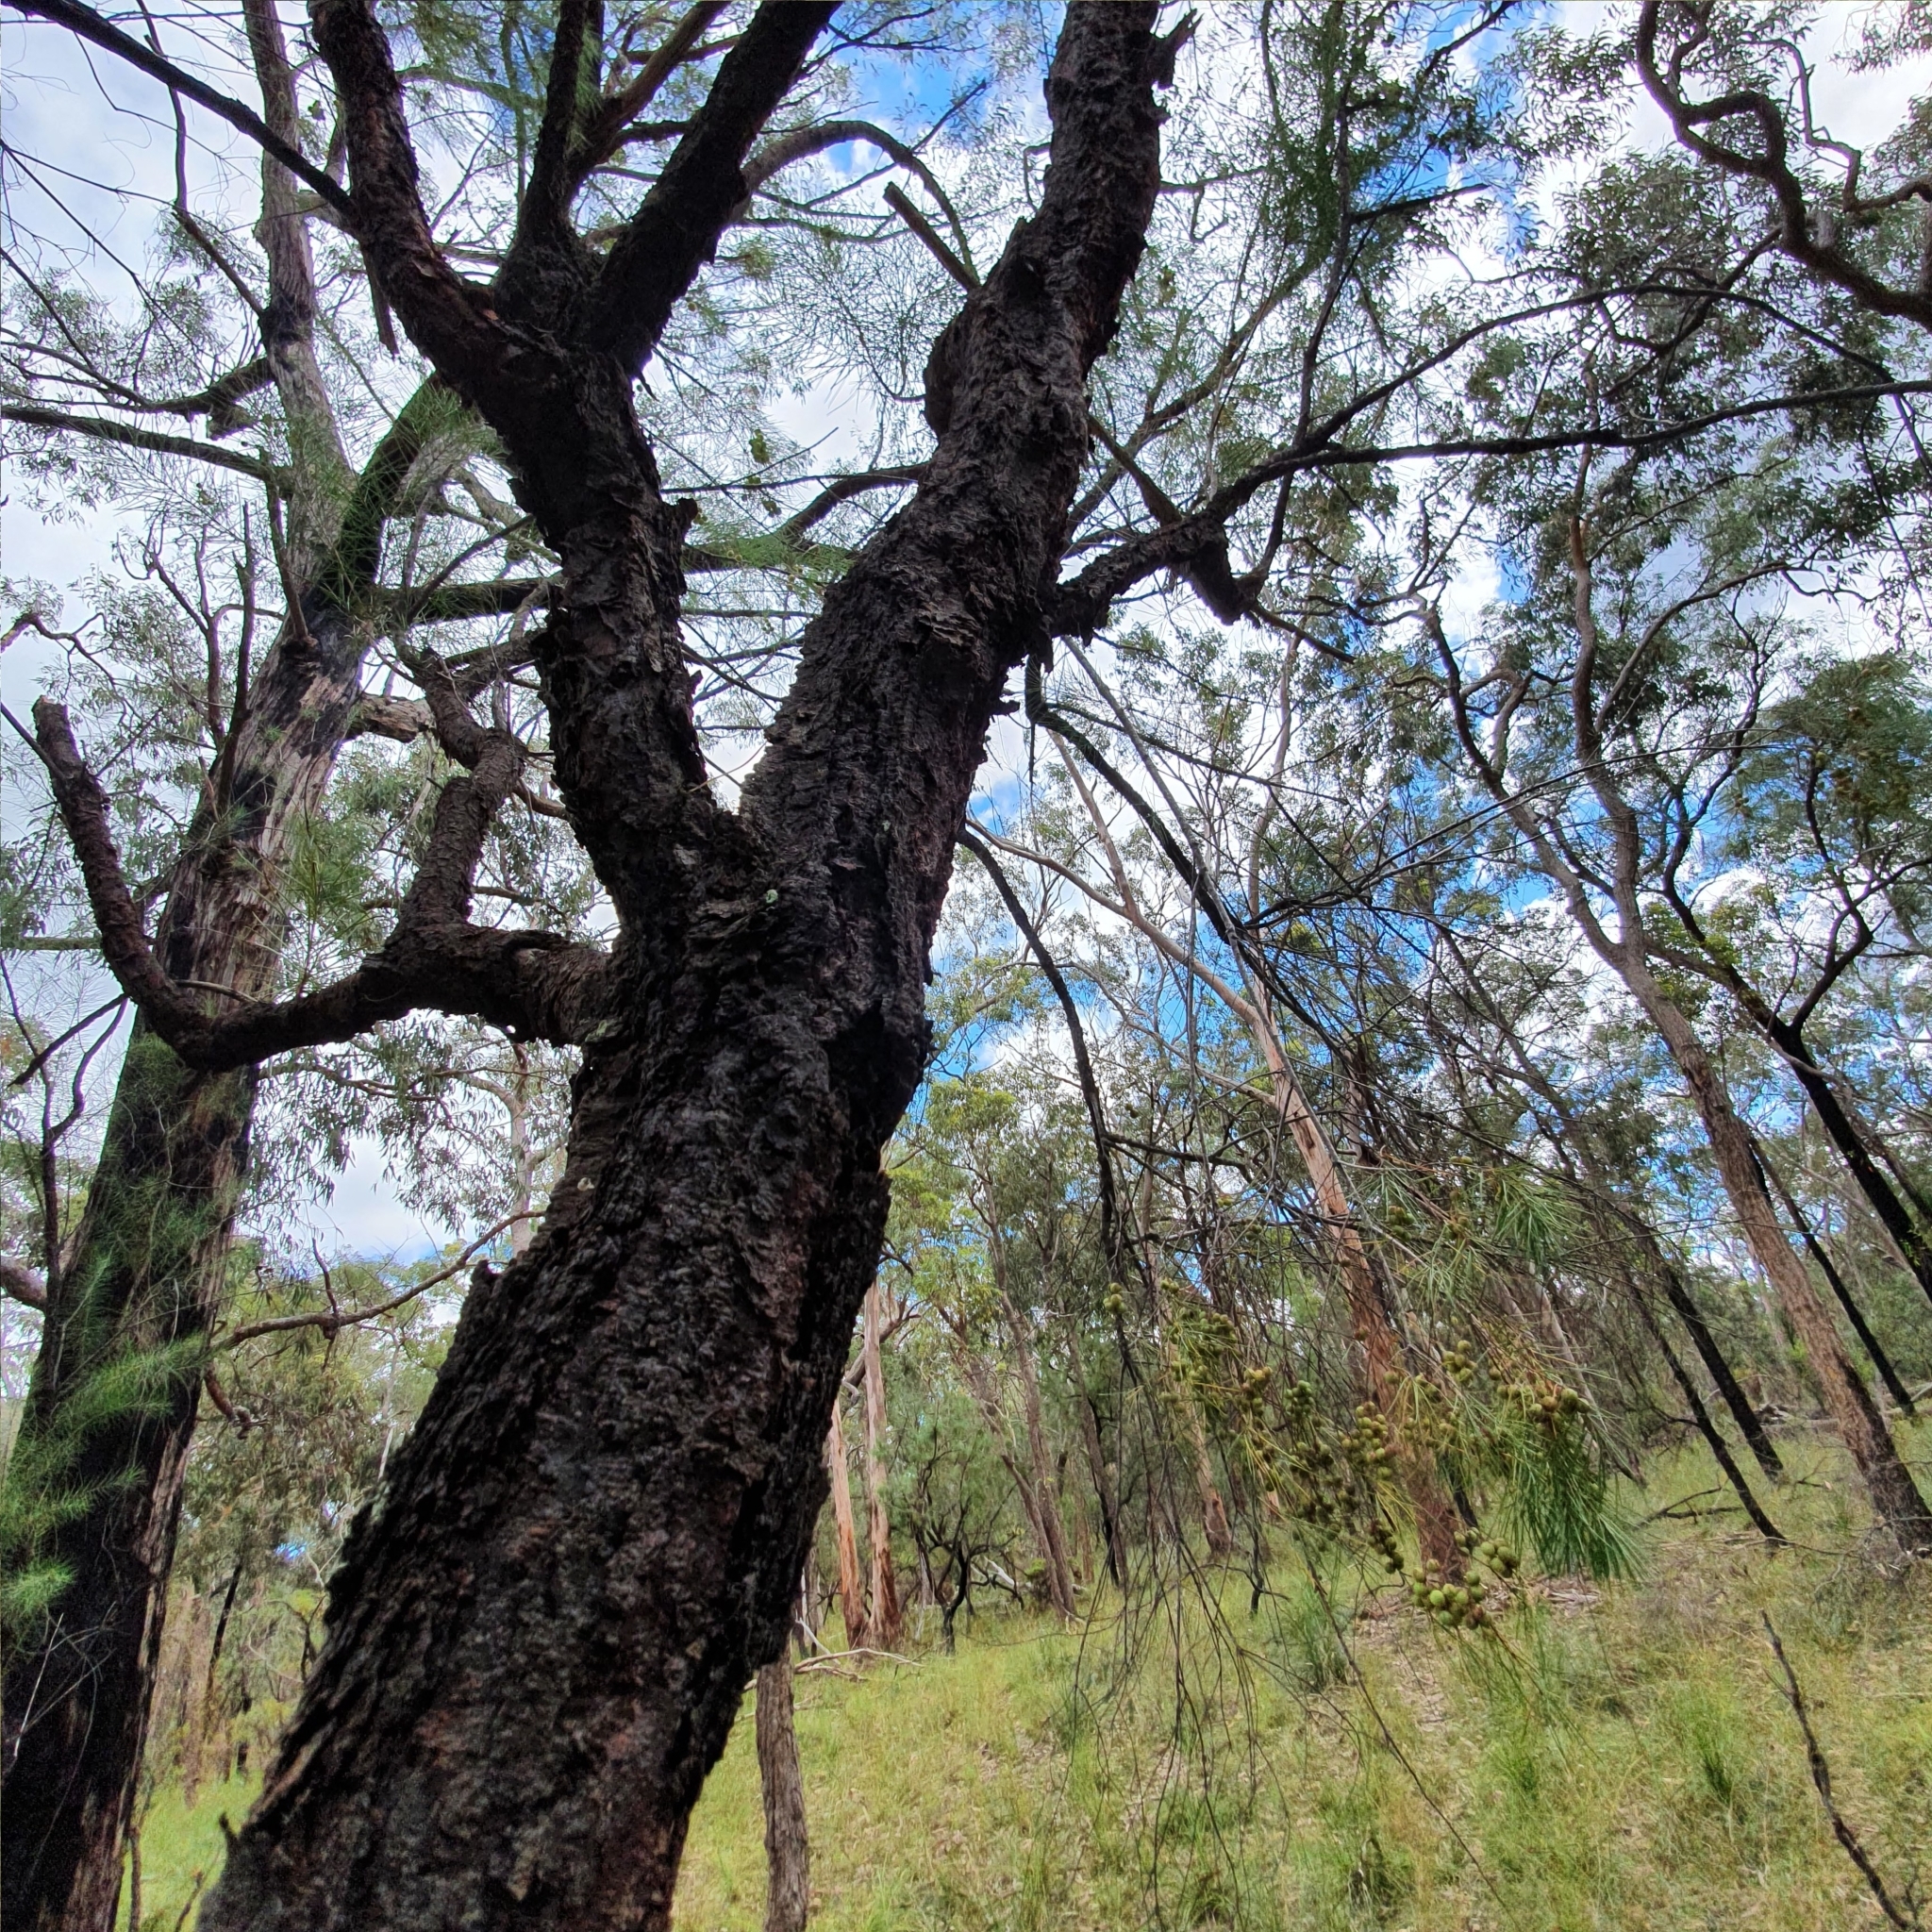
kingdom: Plantae
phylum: Tracheophyta
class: Magnoliopsida
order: Proteales
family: Proteaceae
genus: Persoonia
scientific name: Persoonia linearis
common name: Narrow-leaf geebung
